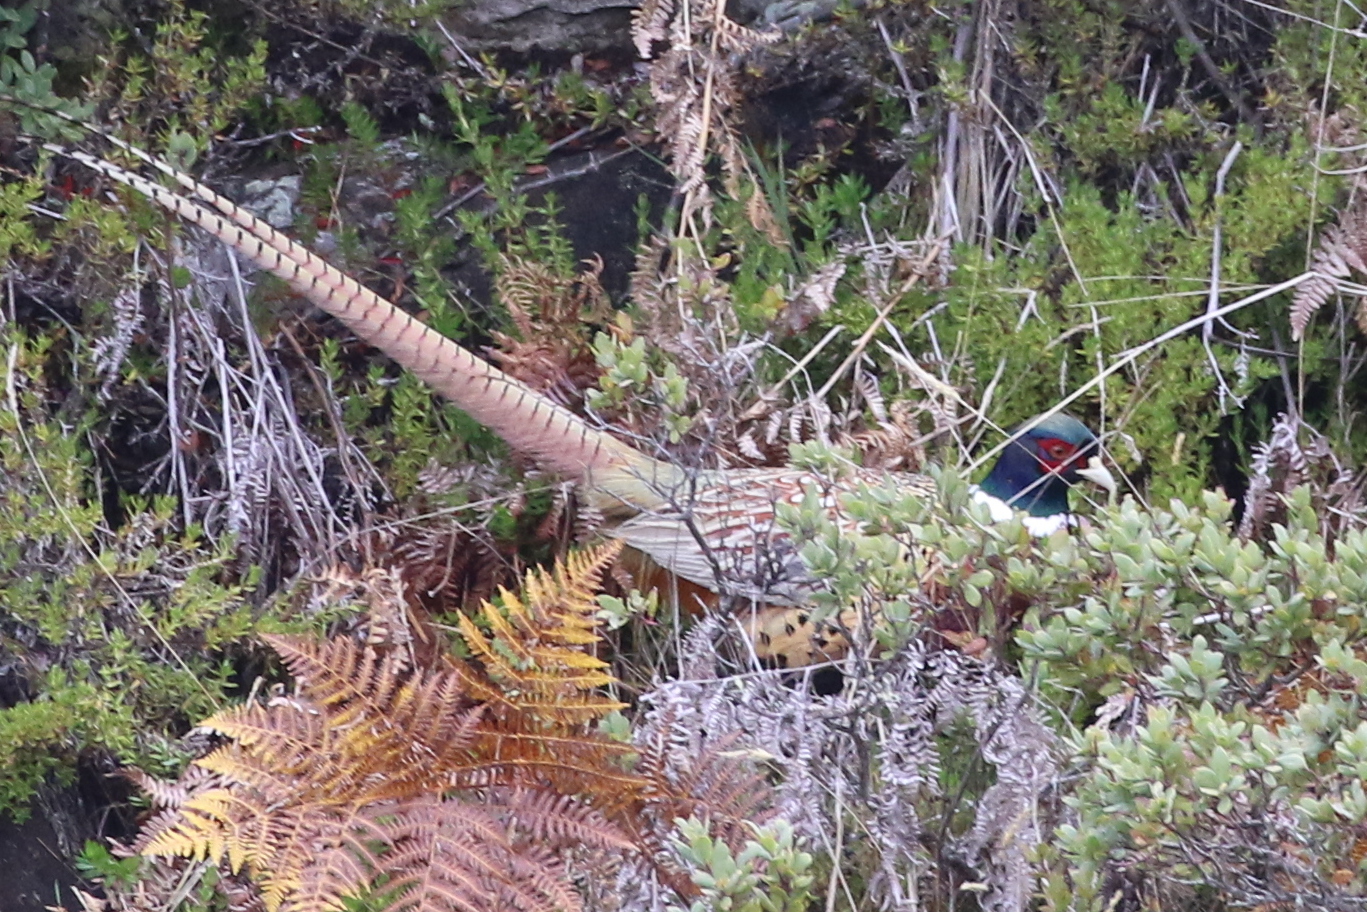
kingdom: Animalia
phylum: Chordata
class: Aves
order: Galliformes
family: Phasianidae
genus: Phasianus
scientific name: Phasianus colchicus
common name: Common pheasant
